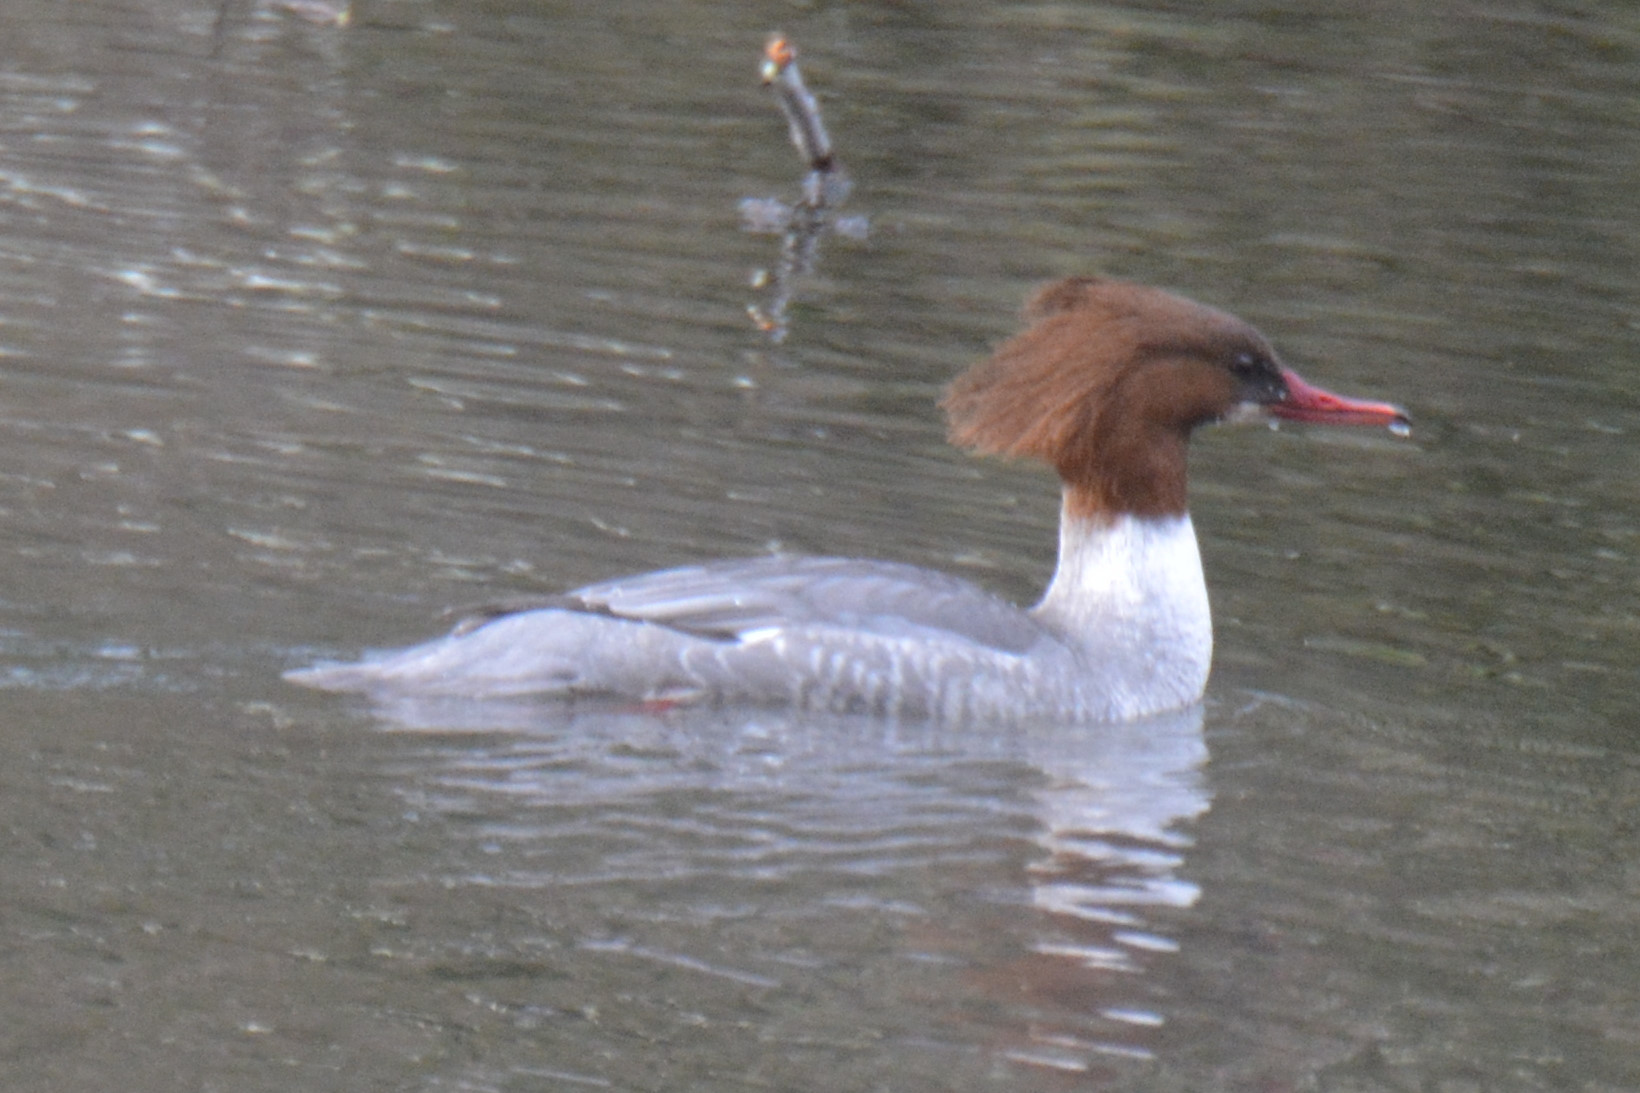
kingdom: Animalia
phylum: Chordata
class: Aves
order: Anseriformes
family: Anatidae
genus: Mergus
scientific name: Mergus merganser
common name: Common merganser
